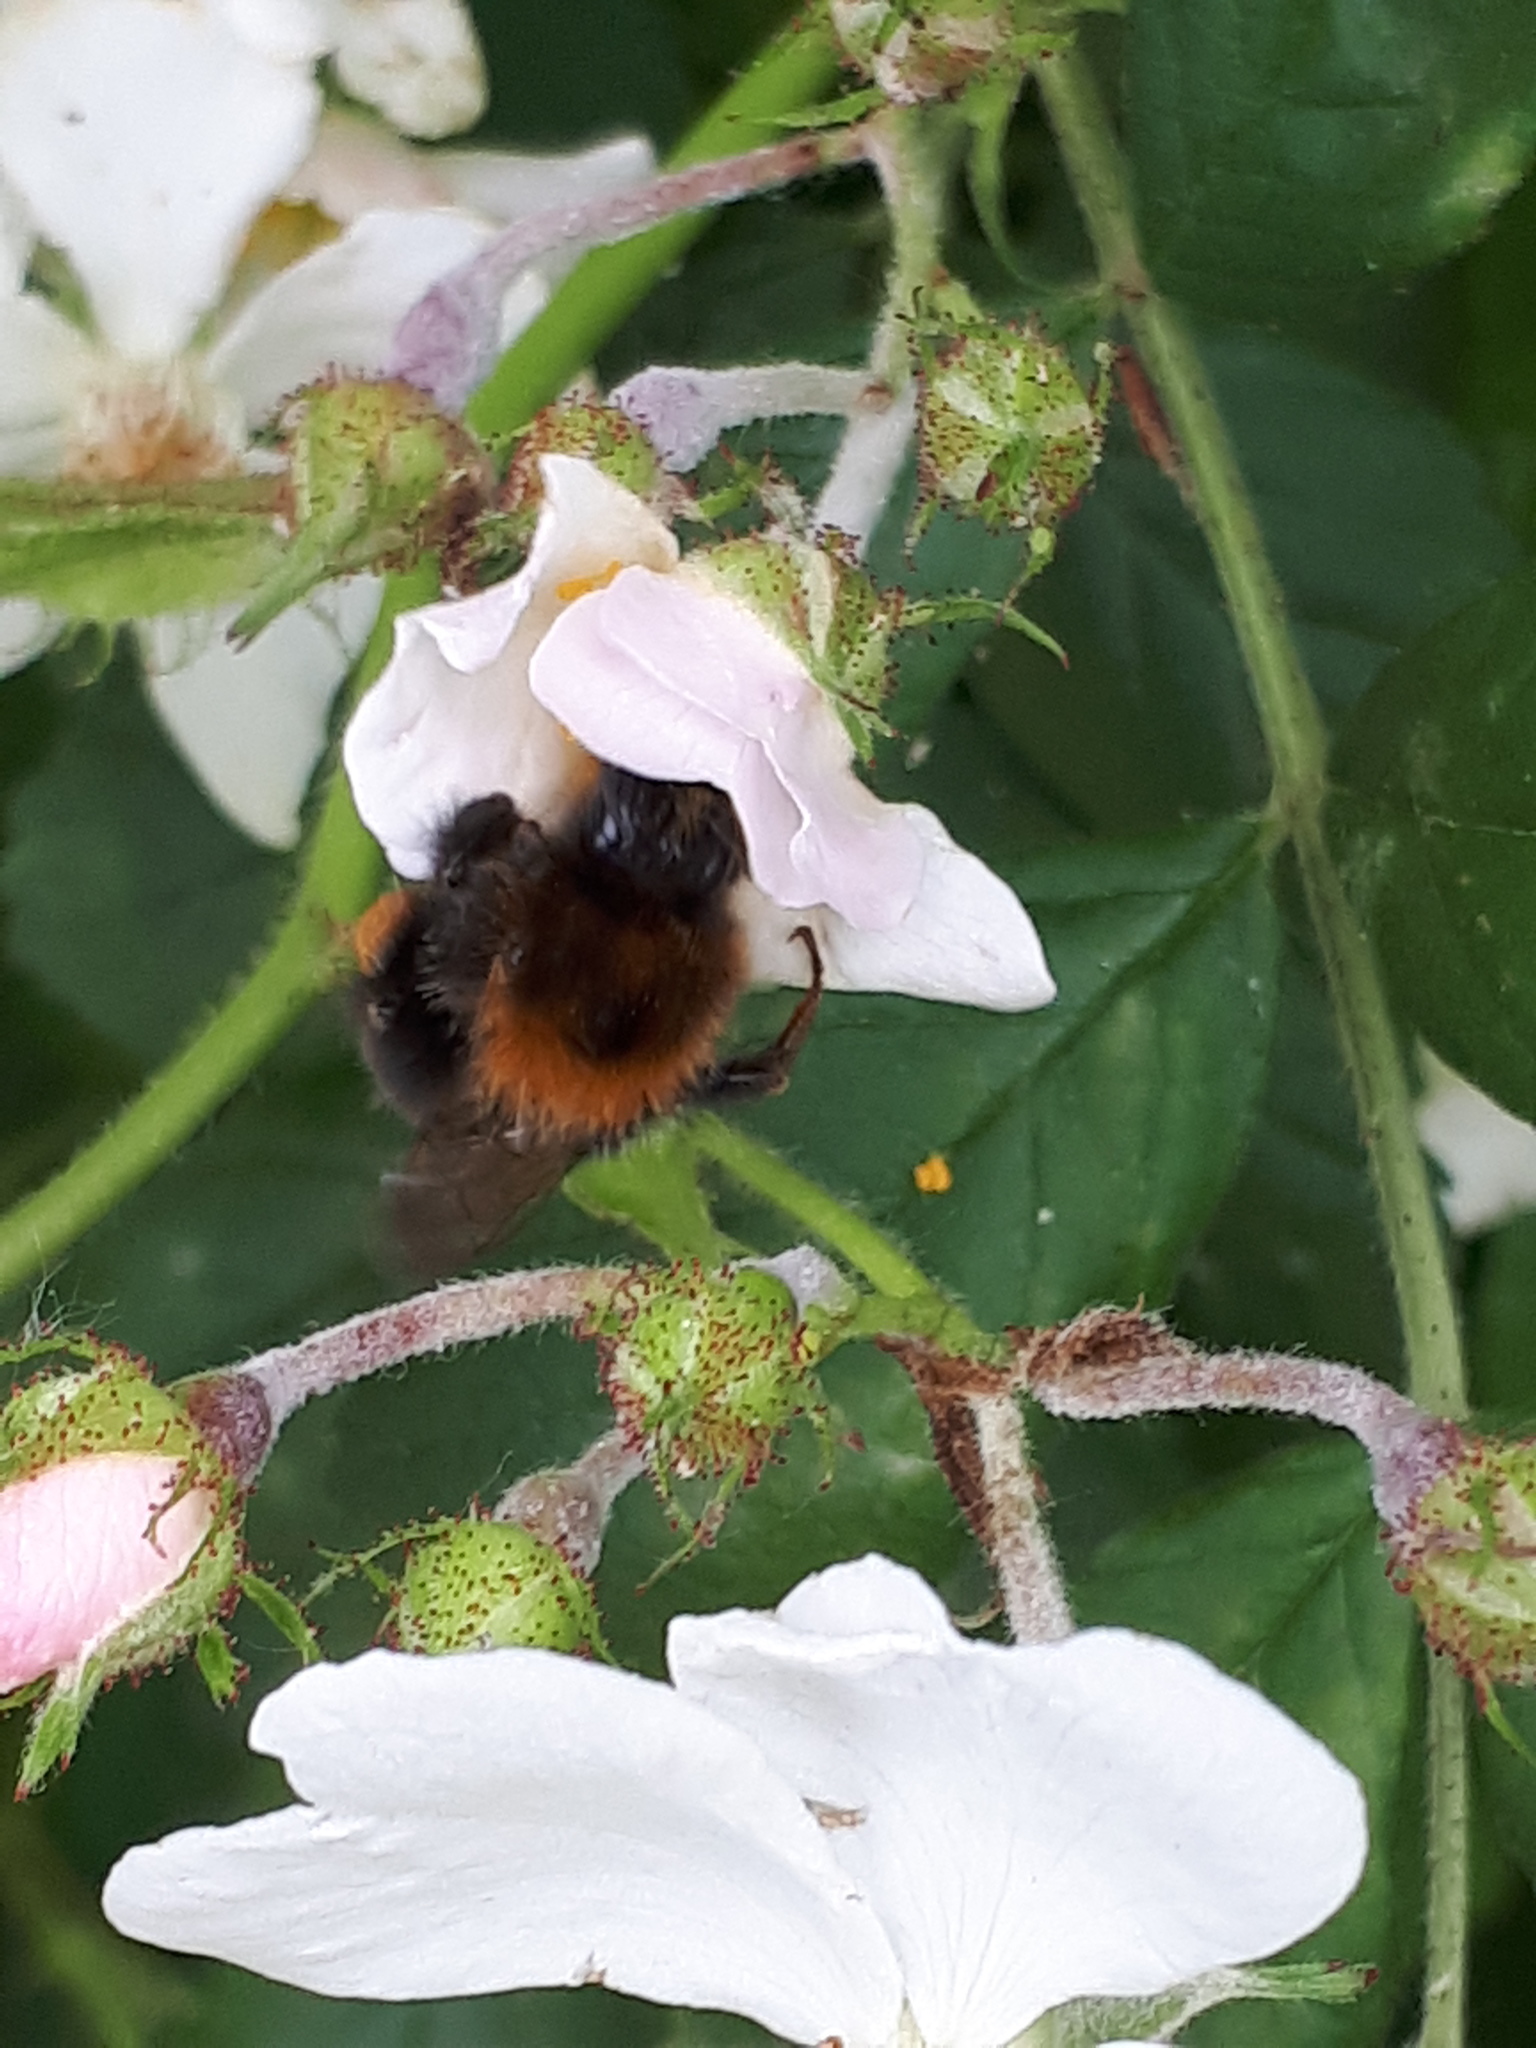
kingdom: Animalia
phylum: Arthropoda
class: Insecta
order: Hymenoptera
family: Apidae
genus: Bombus
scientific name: Bombus hypnorum
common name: New garden bumblebee
